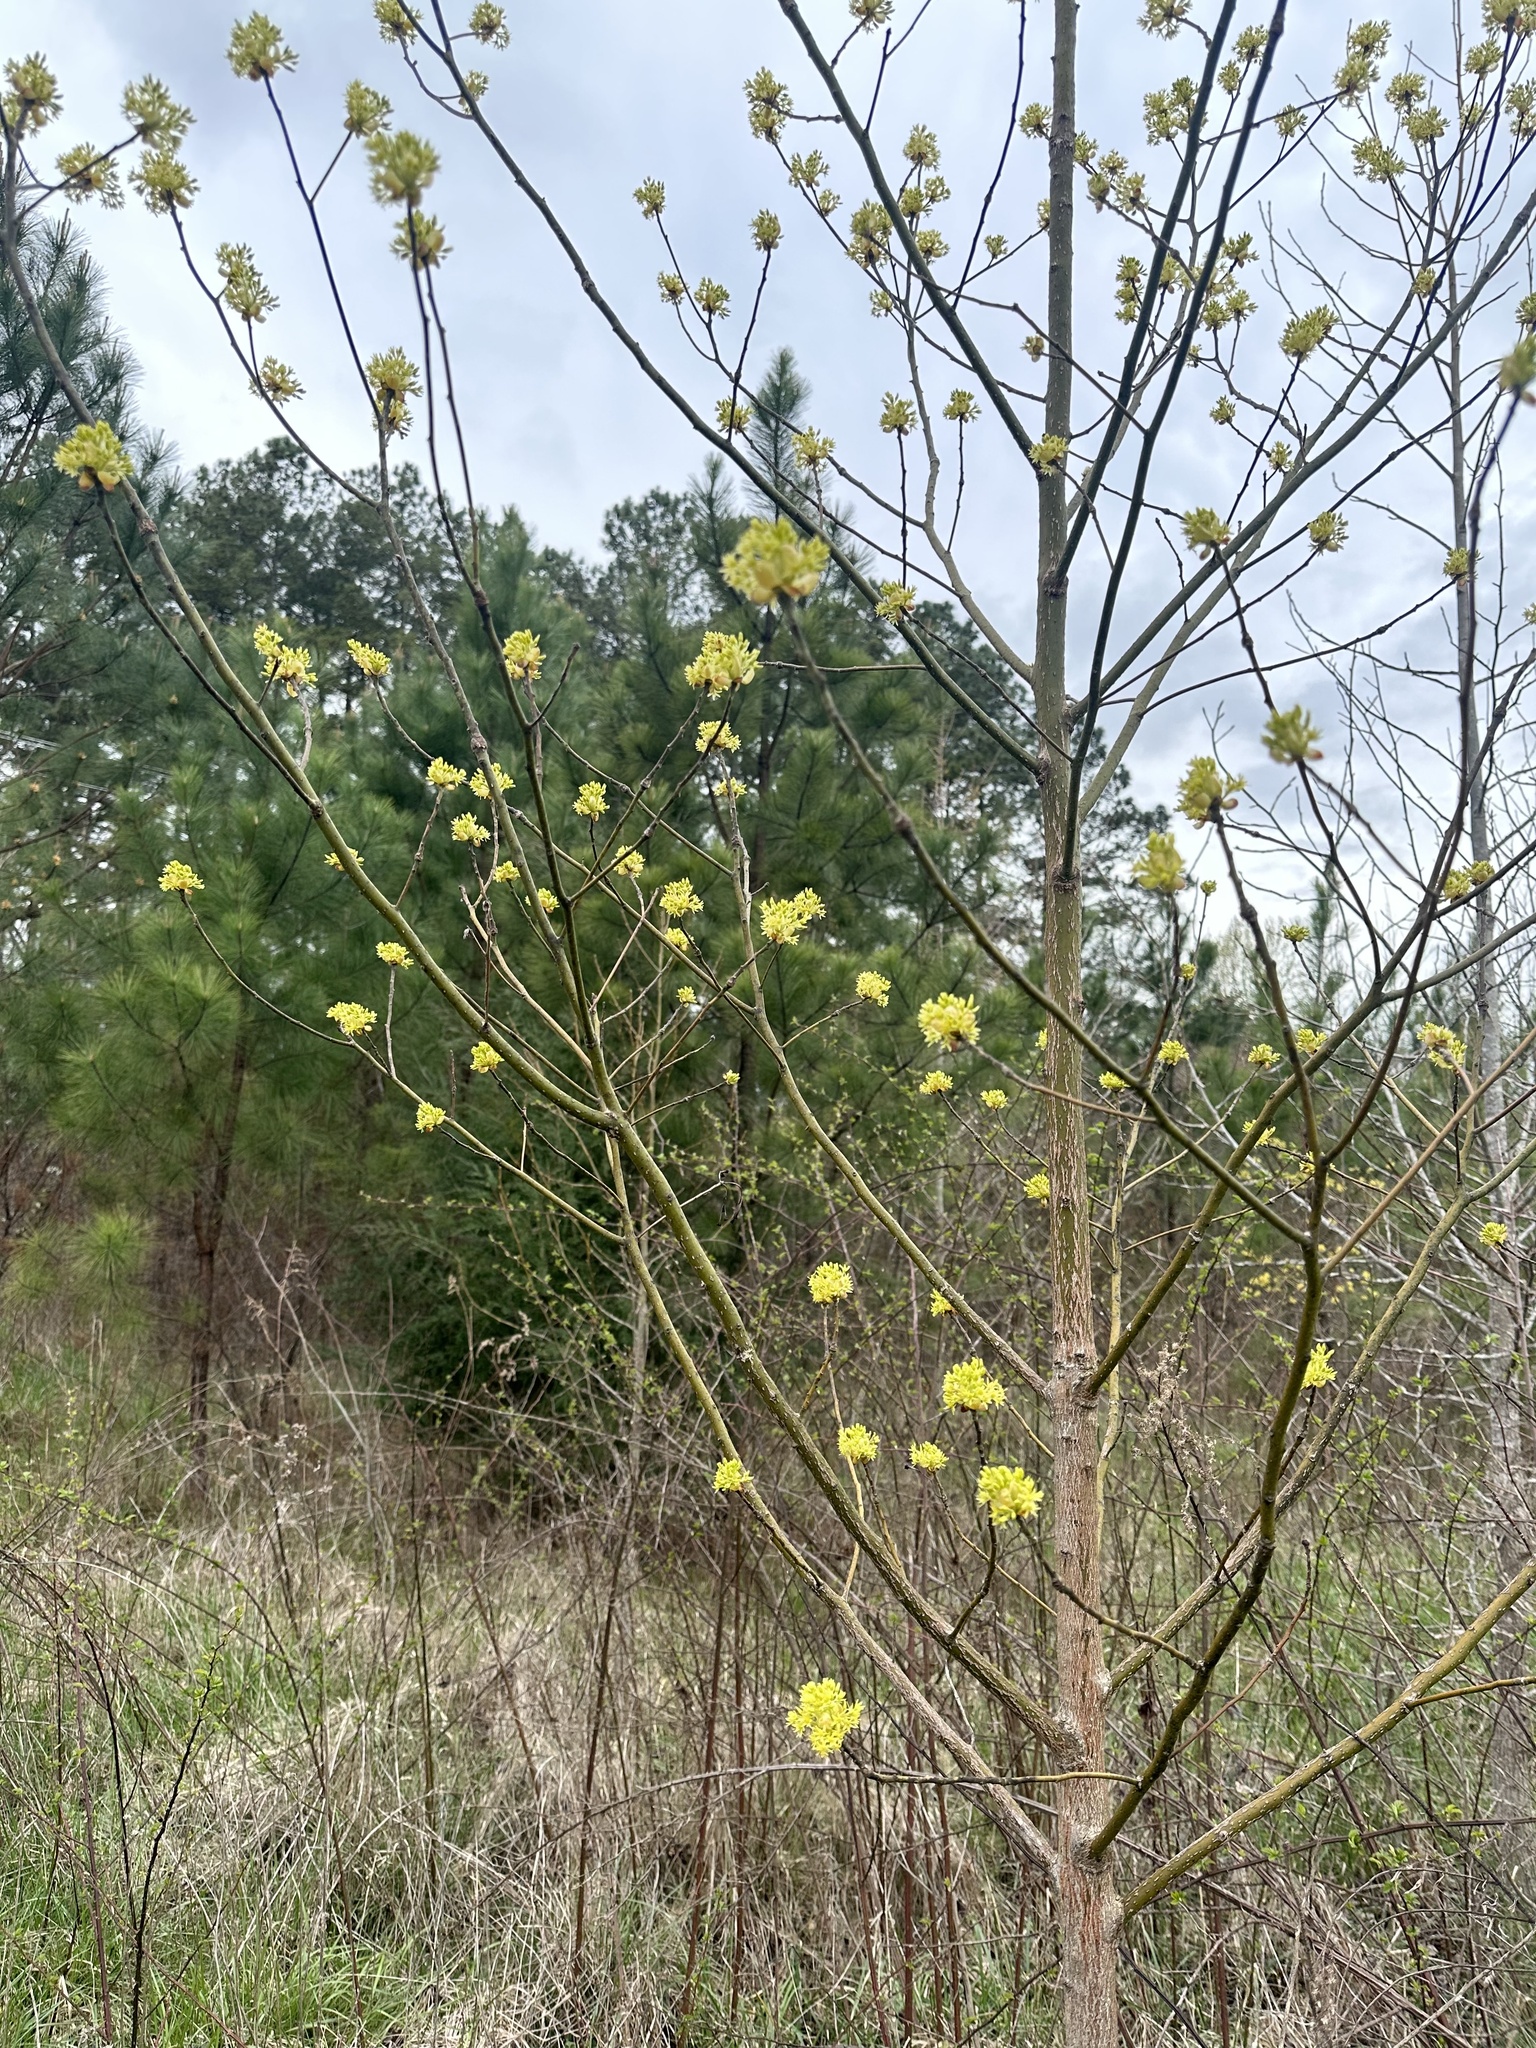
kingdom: Plantae
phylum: Tracheophyta
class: Magnoliopsida
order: Laurales
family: Lauraceae
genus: Sassafras
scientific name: Sassafras albidum
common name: Sassafras
